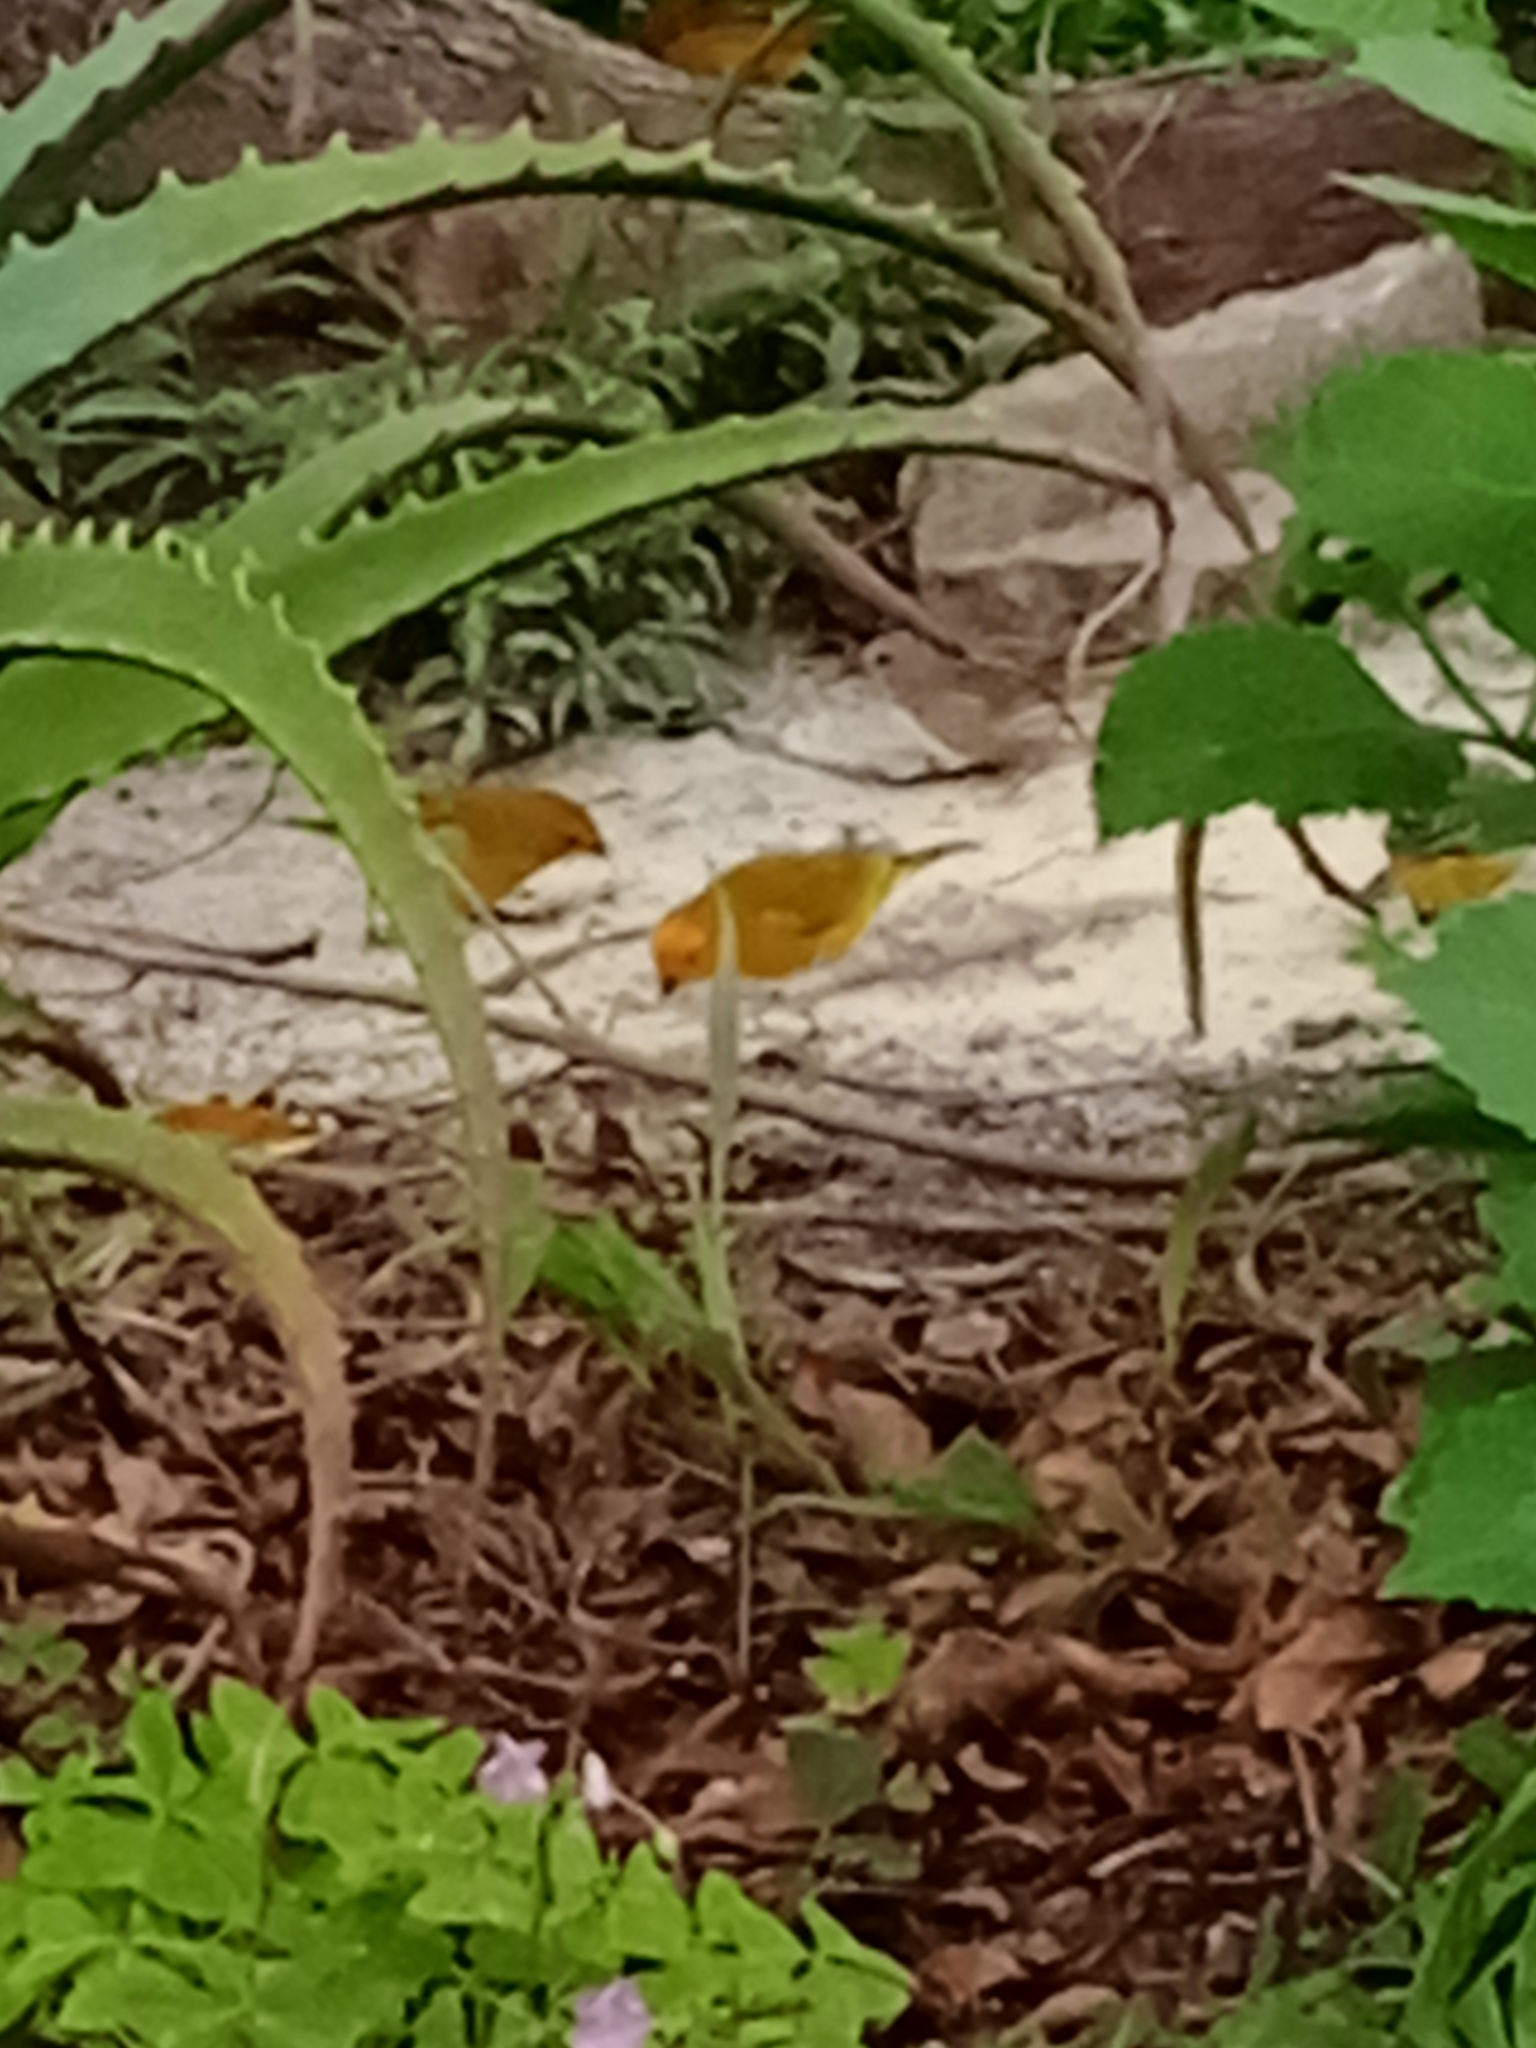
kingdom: Animalia
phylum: Chordata
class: Aves
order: Passeriformes
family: Thraupidae
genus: Sicalis
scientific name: Sicalis flaveola
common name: Saffron finch
